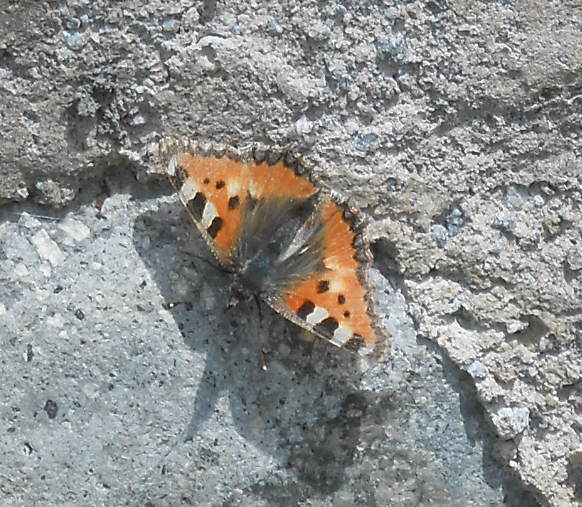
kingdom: Animalia
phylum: Arthropoda
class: Insecta
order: Lepidoptera
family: Nymphalidae
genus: Aglais
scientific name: Aglais urticae
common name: Small tortoiseshell
